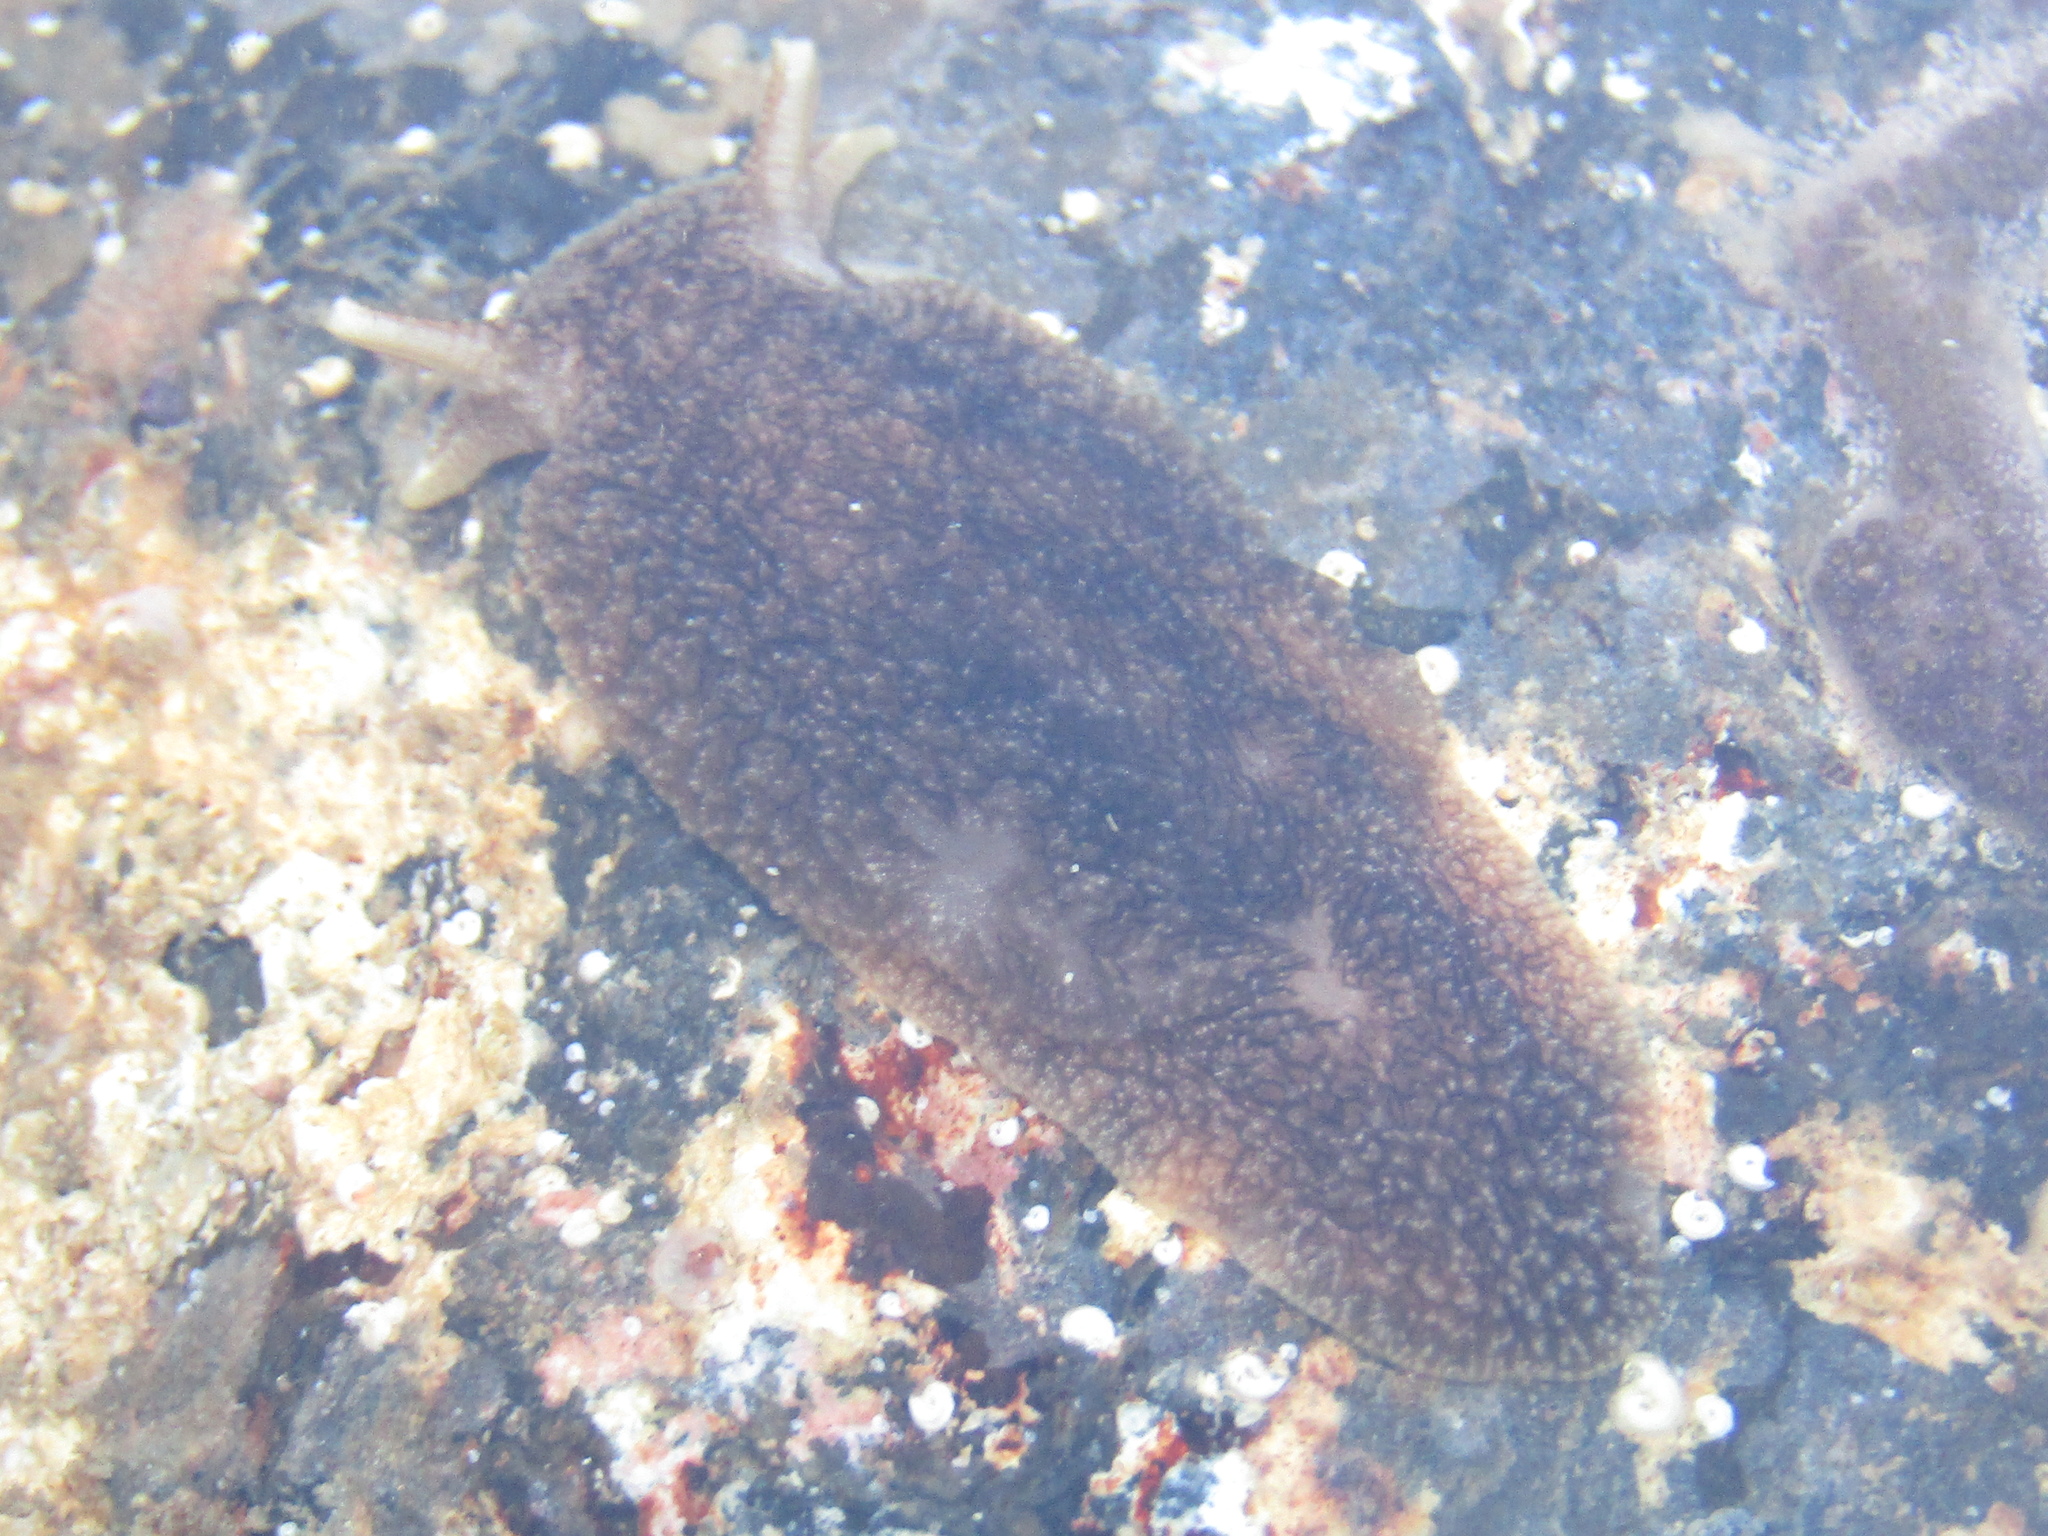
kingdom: Animalia
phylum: Mollusca
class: Gastropoda
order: Pleurobranchida
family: Pleurobranchaeidae
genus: Pleurobranchaea
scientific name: Pleurobranchaea maculata
